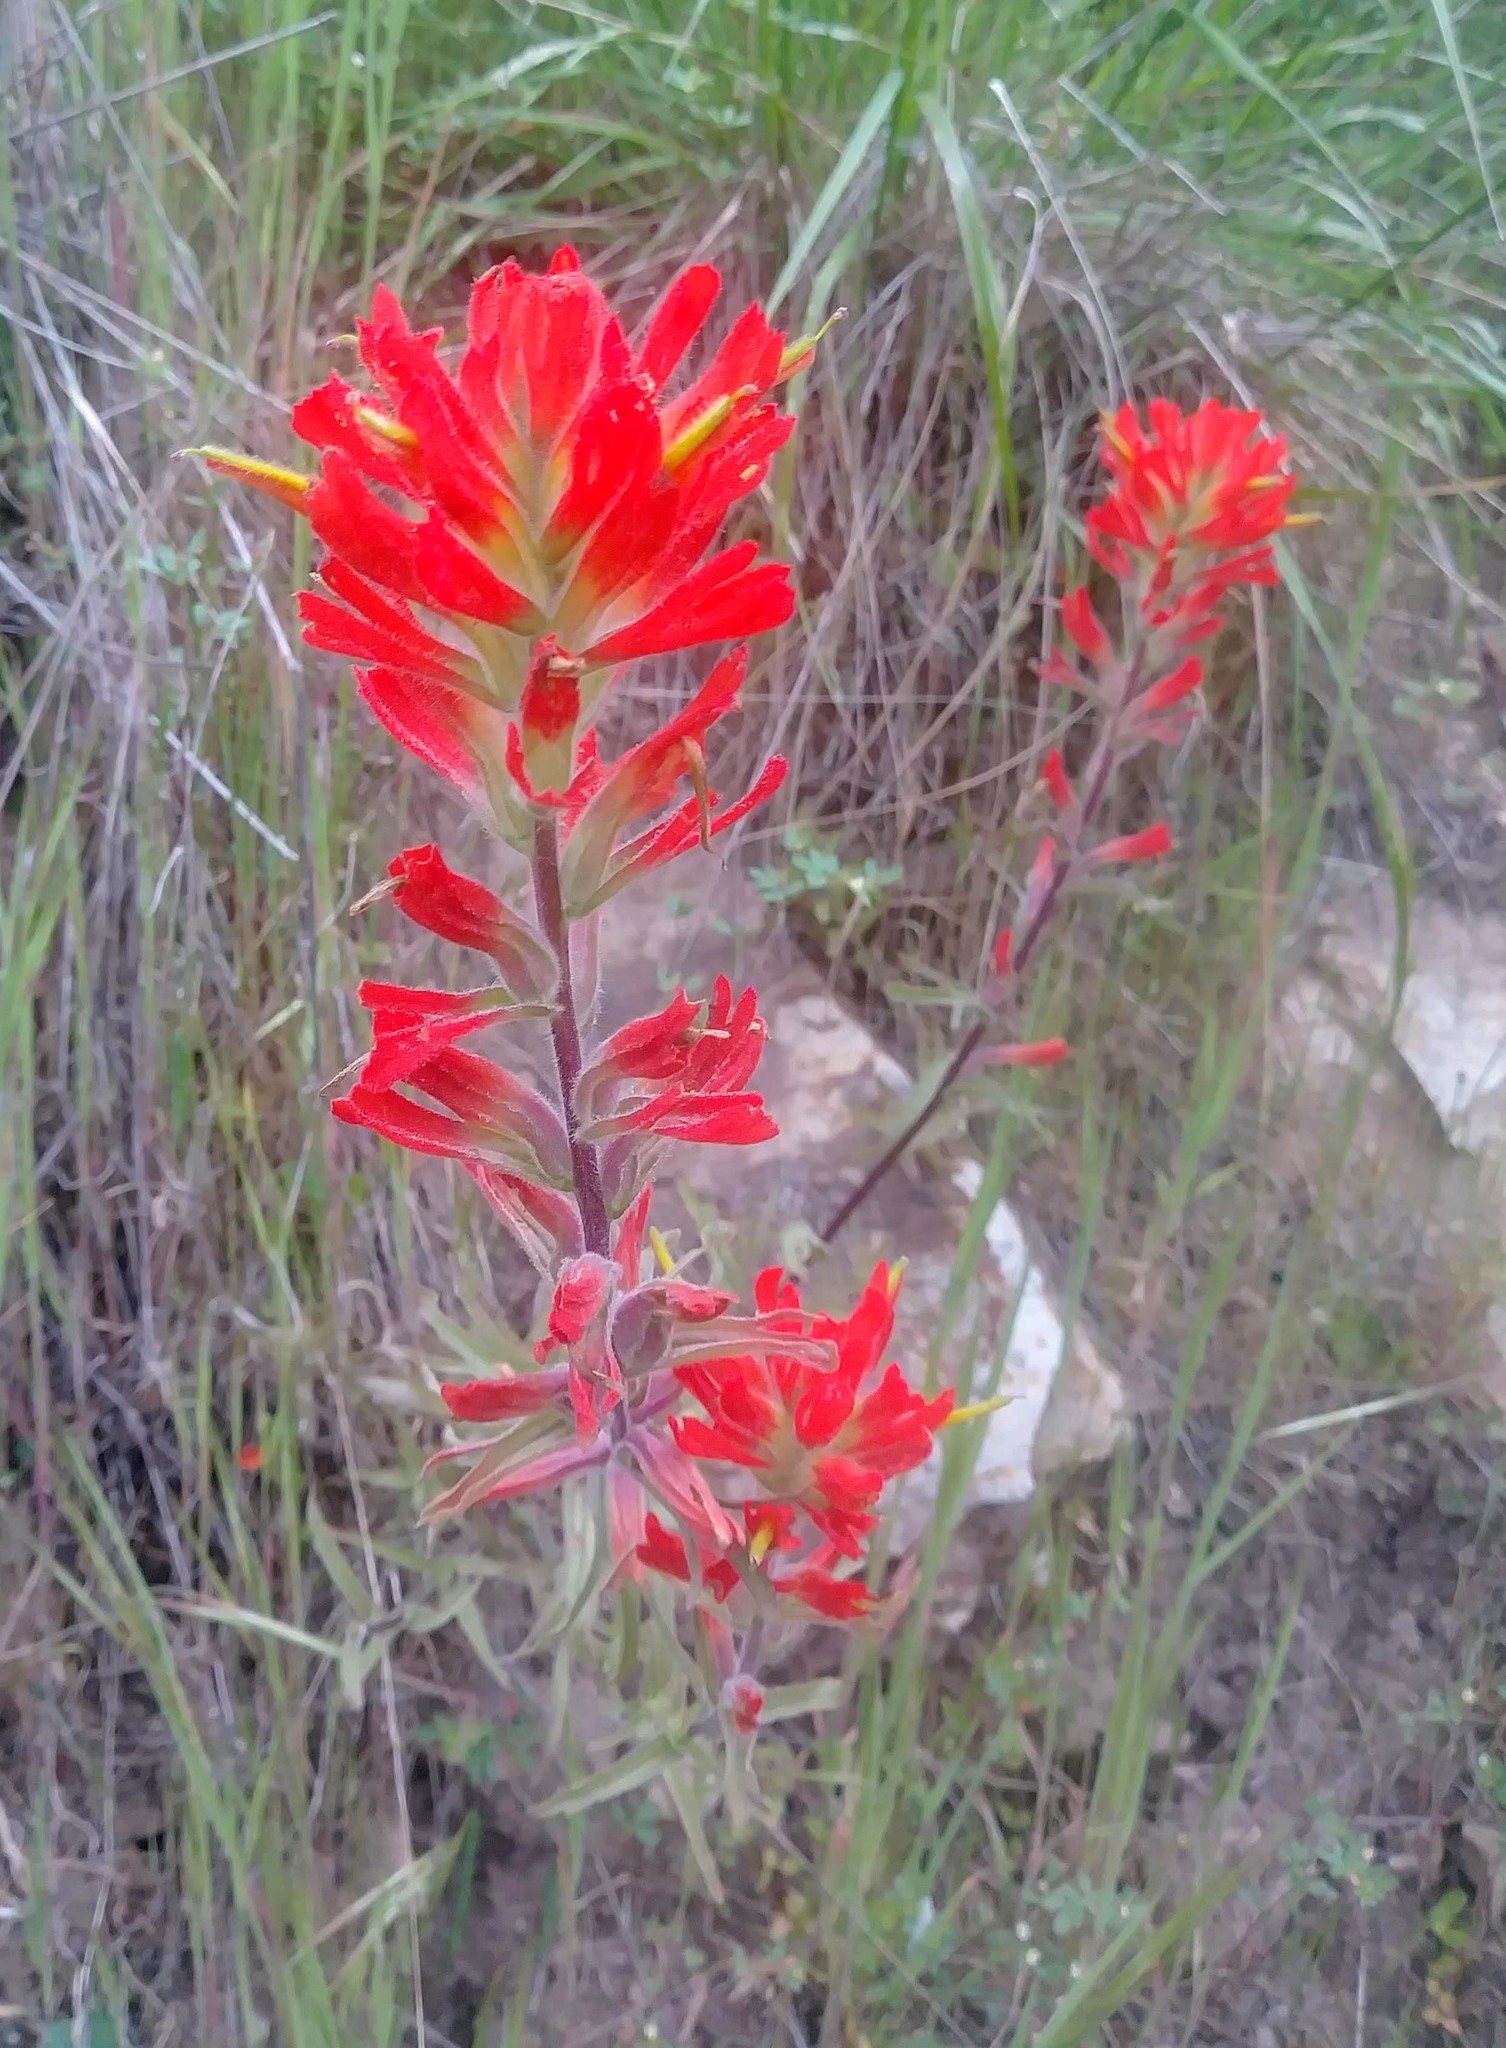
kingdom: Plantae
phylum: Tracheophyta
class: Magnoliopsida
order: Lamiales
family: Orobanchaceae
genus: Castilleja
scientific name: Castilleja affinis
